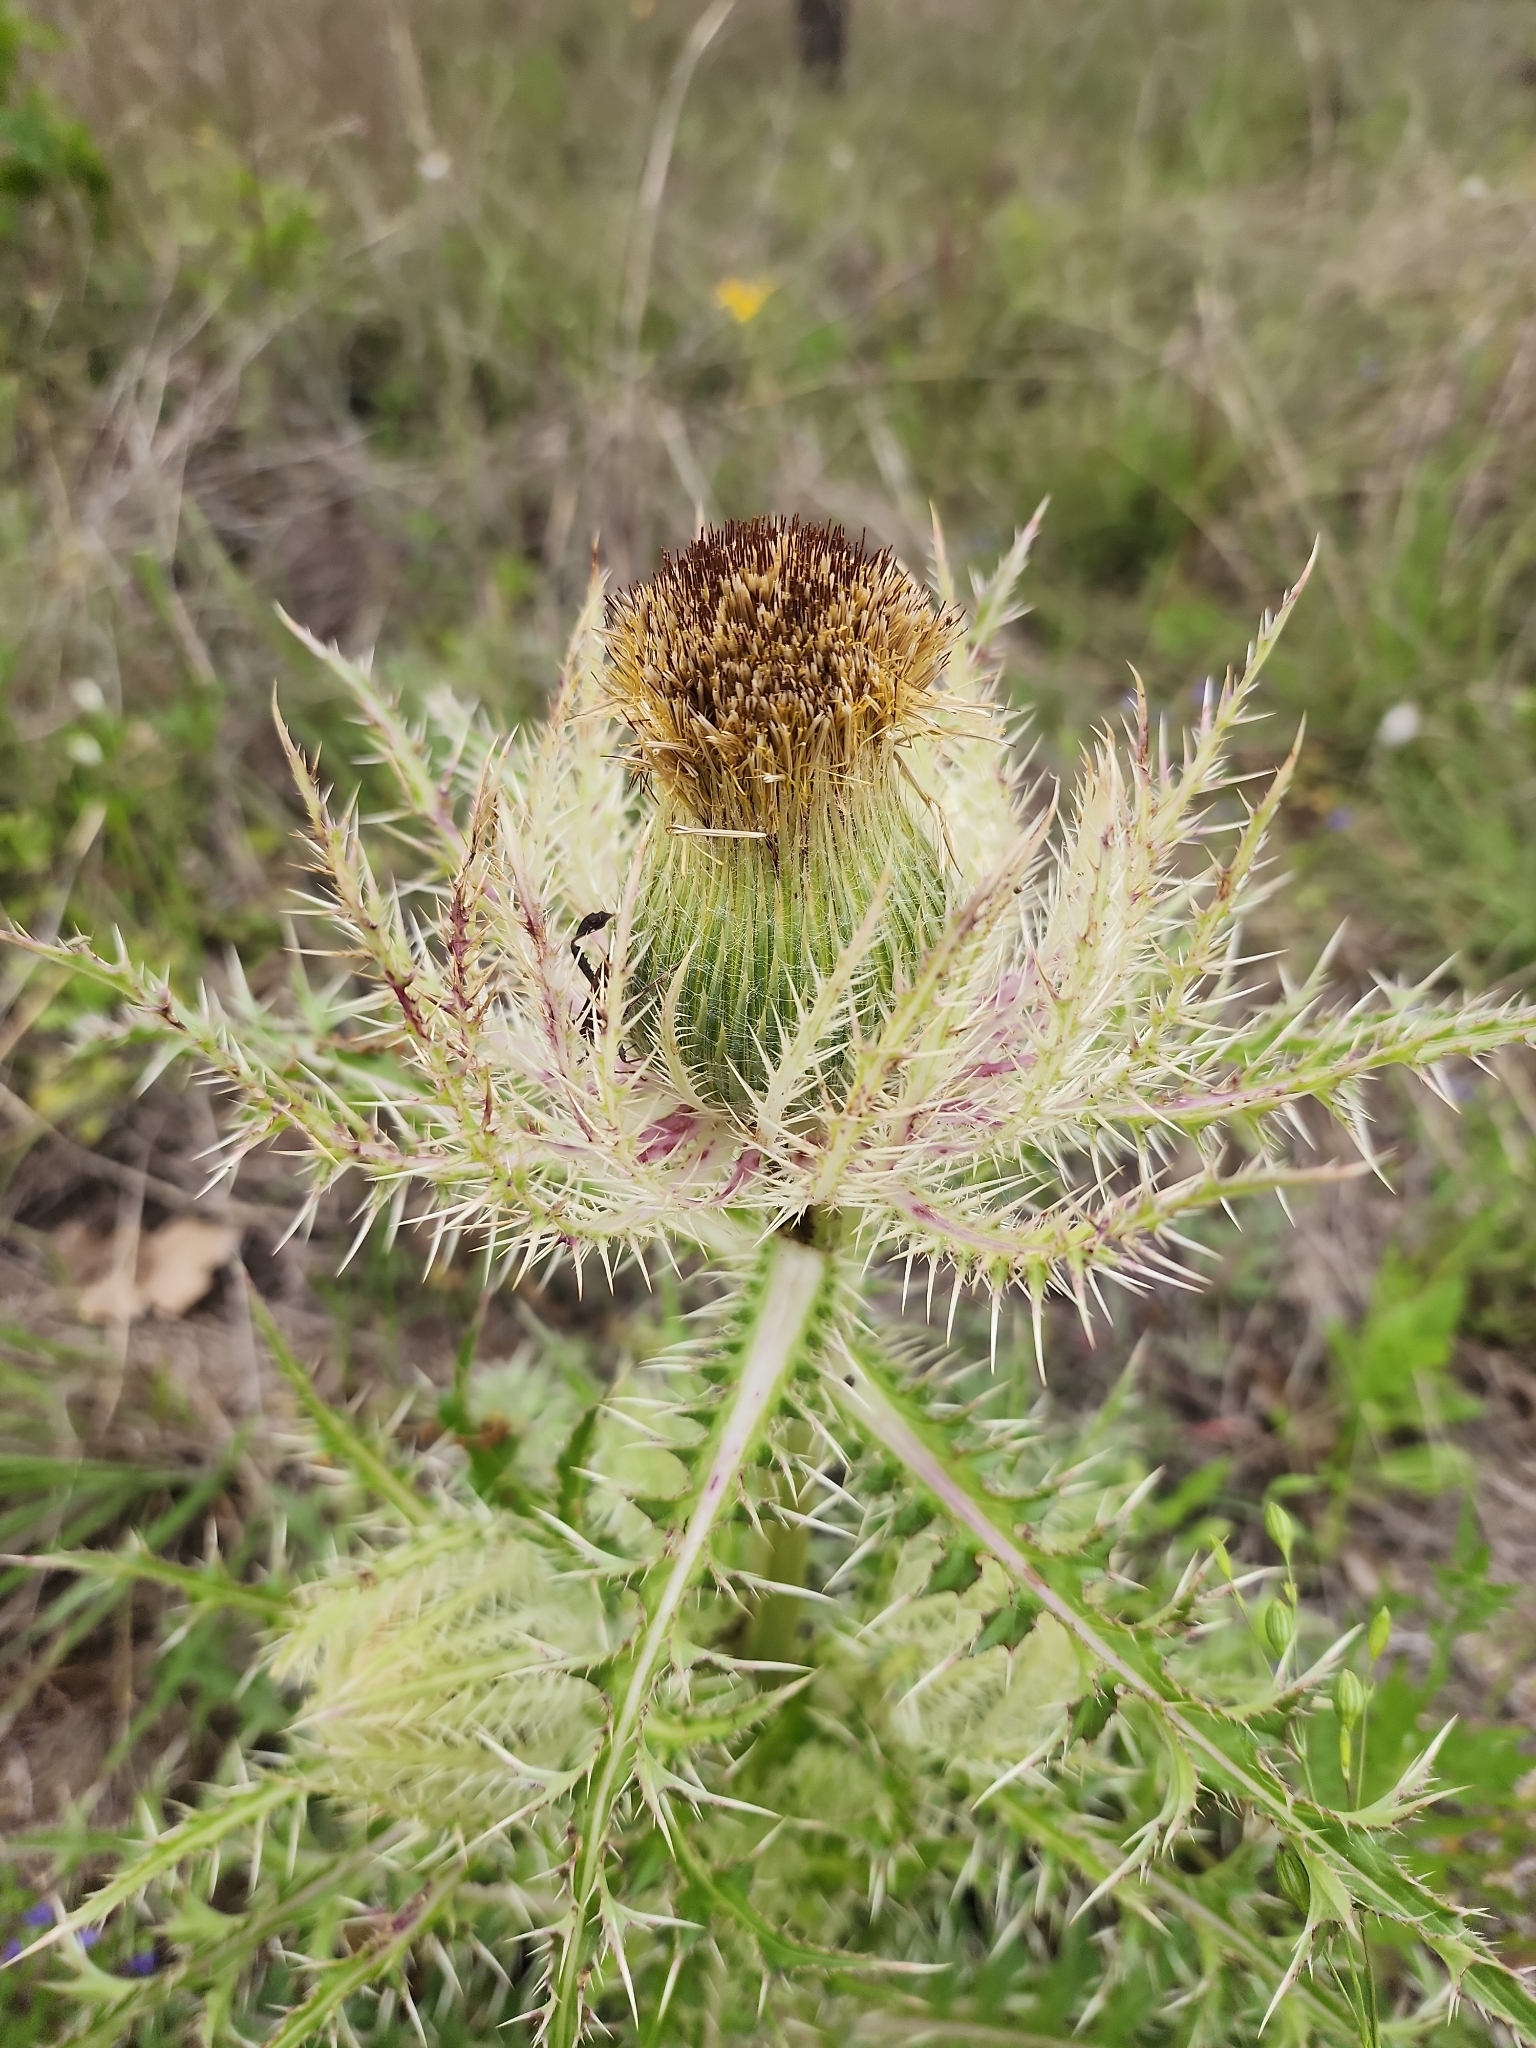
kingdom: Plantae
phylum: Tracheophyta
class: Magnoliopsida
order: Asterales
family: Asteraceae
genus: Cirsium
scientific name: Cirsium horridulum
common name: Bristly thistle
